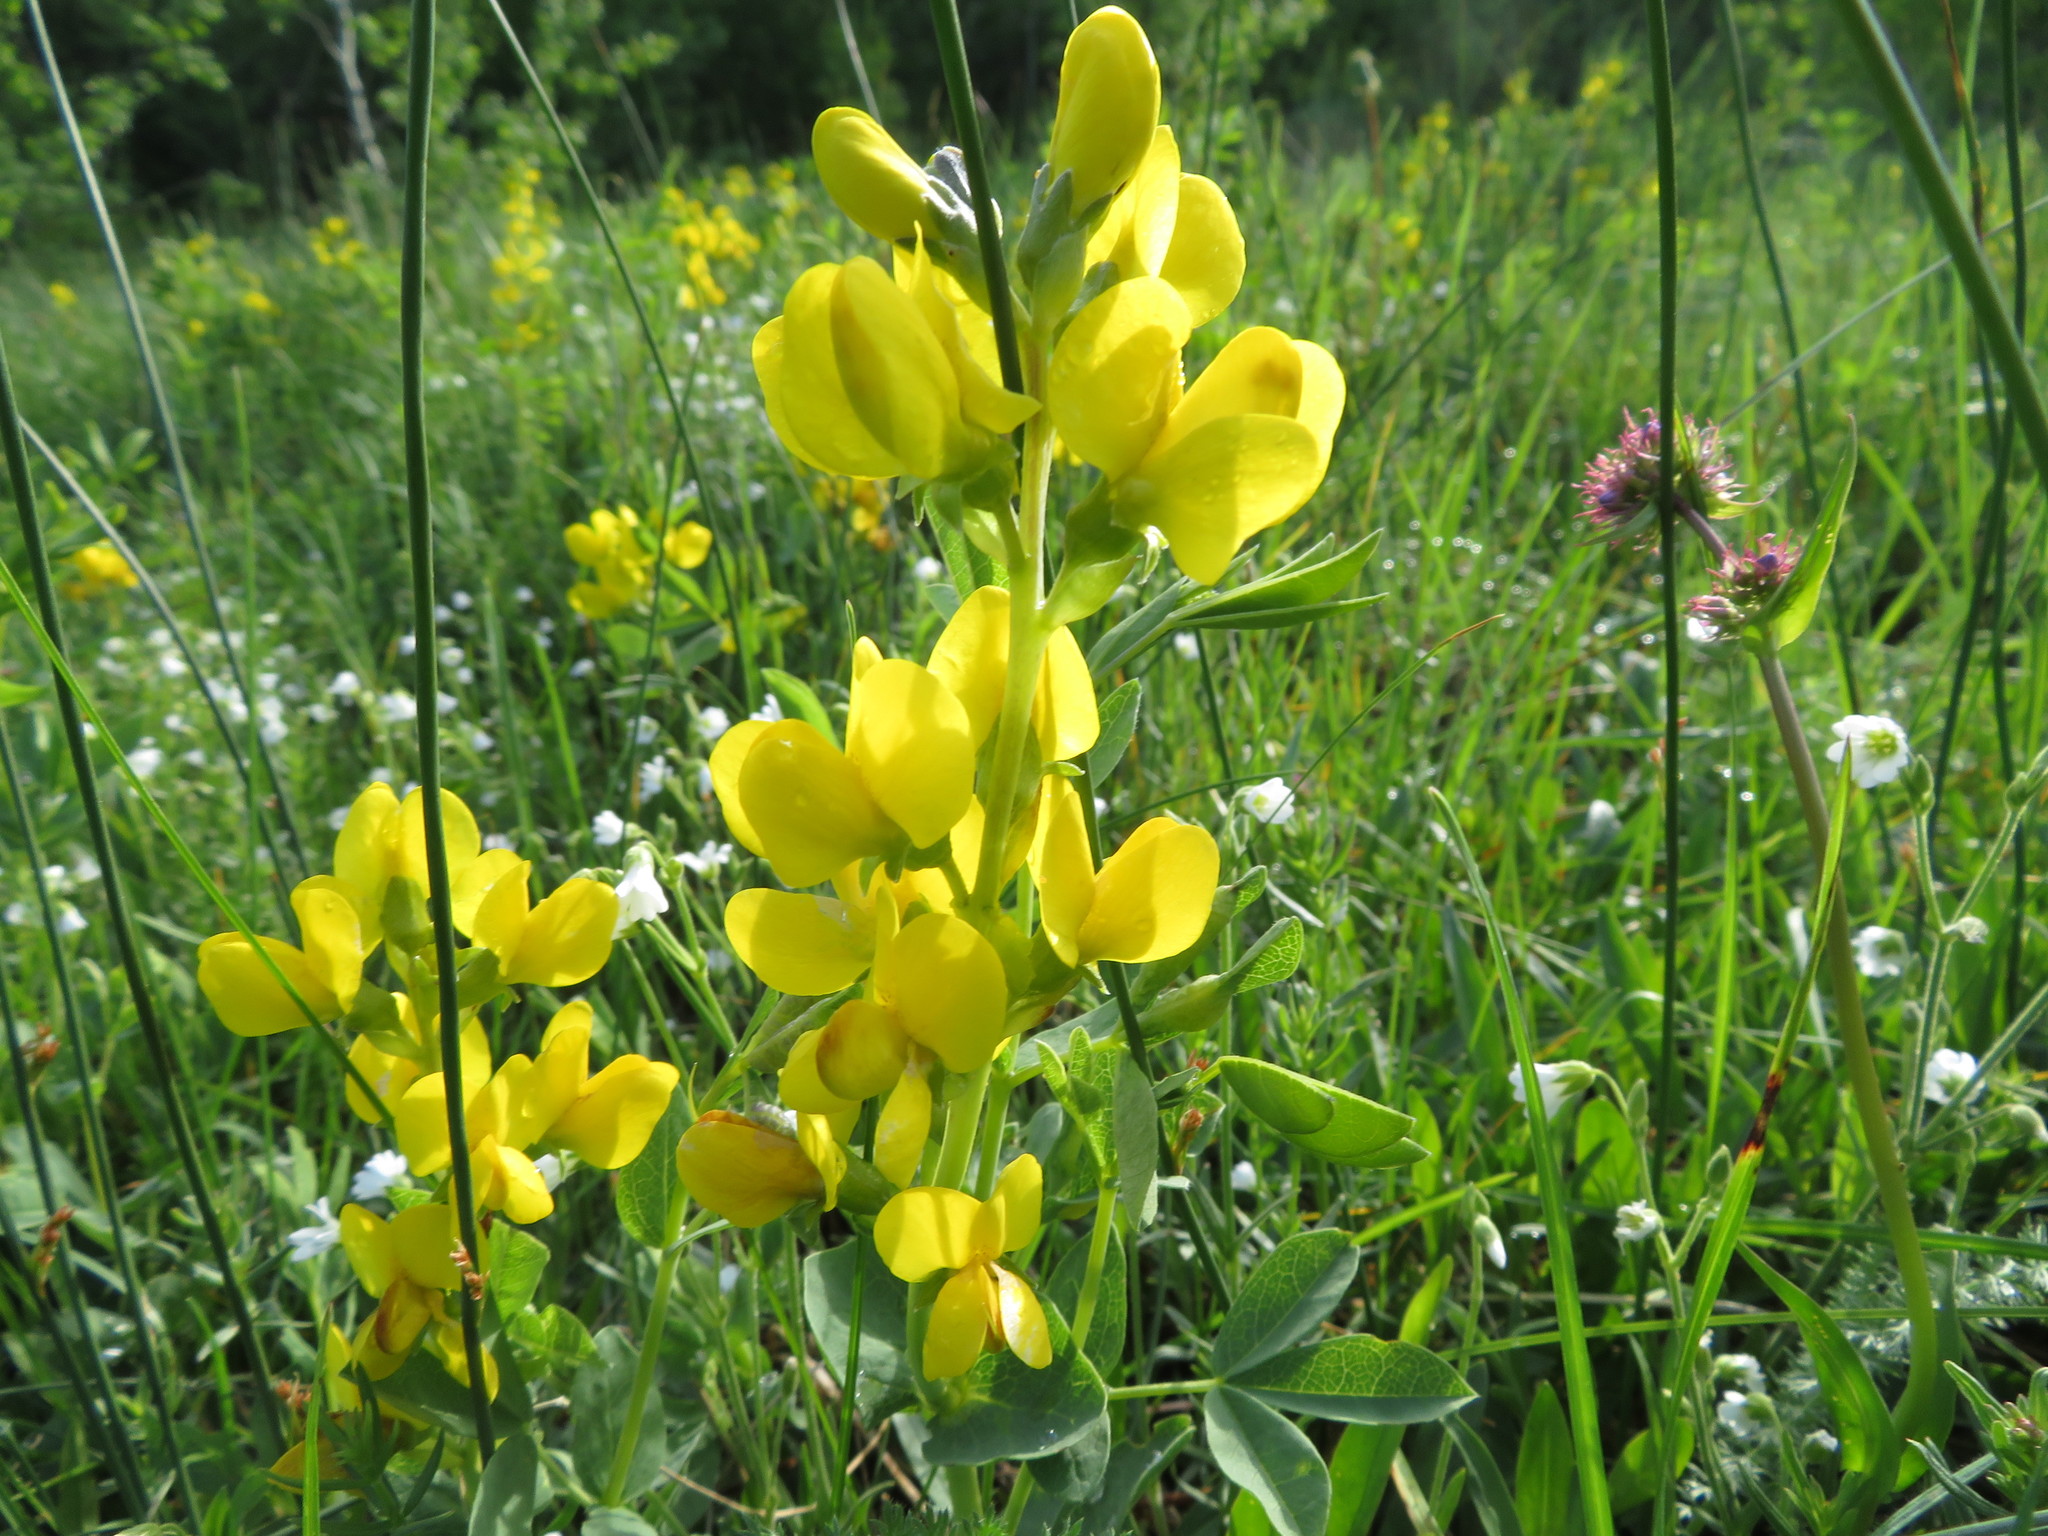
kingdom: Plantae
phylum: Tracheophyta
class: Magnoliopsida
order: Fabales
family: Fabaceae
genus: Thermopsis
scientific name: Thermopsis rhombifolia
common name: Circle-pod-pea
